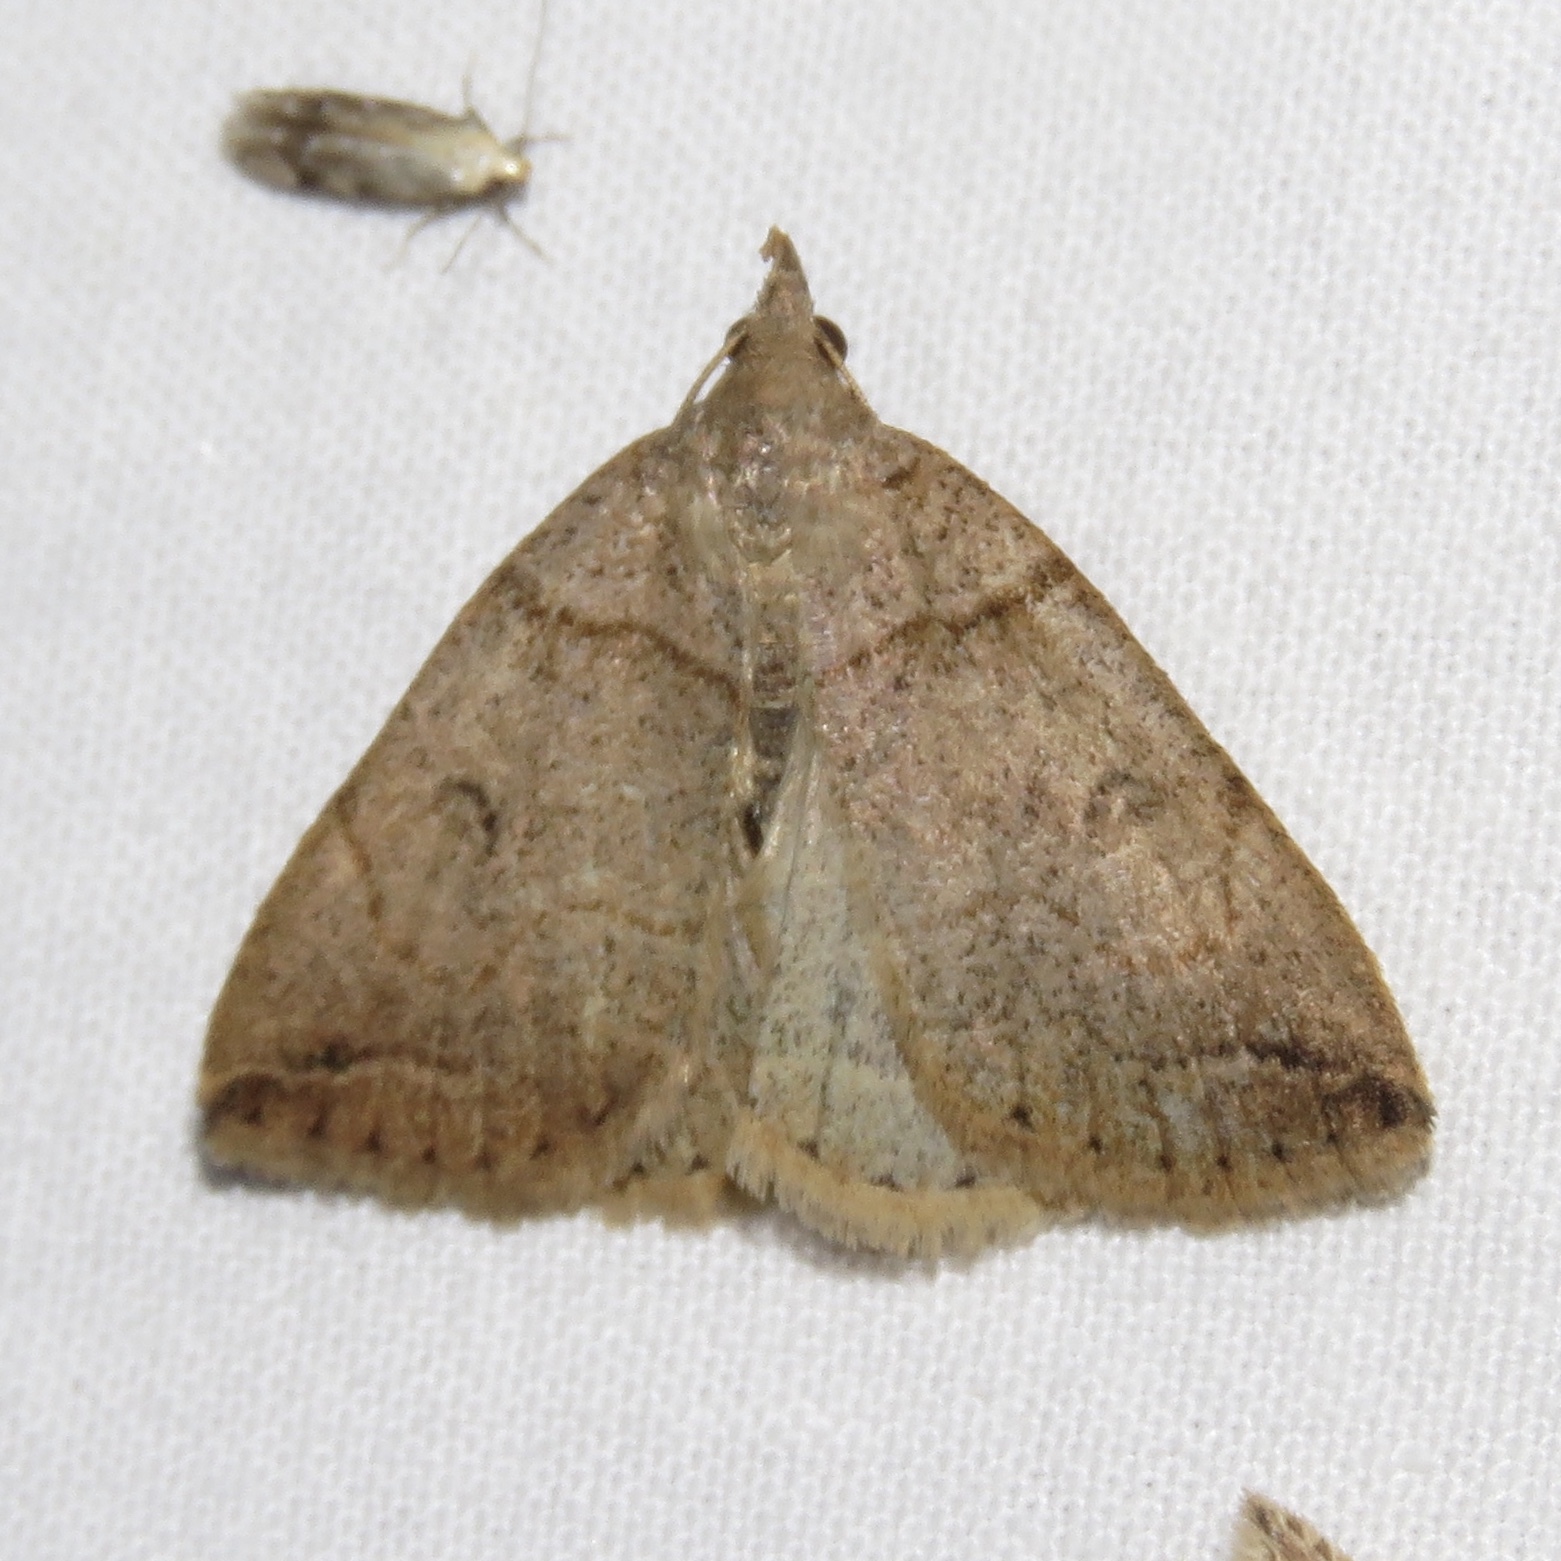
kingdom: Animalia
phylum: Arthropoda
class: Insecta
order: Lepidoptera
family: Erebidae
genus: Zanclognatha
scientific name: Zanclognatha laevigata
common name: Variable fan-foot
